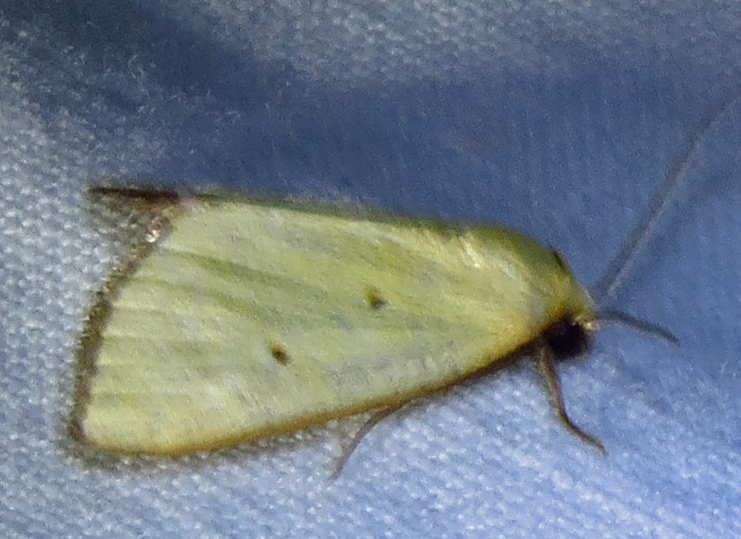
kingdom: Animalia
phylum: Arthropoda
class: Insecta
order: Lepidoptera
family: Noctuidae
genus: Marimatha
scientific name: Marimatha nigrofimbria
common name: Black-bordered lemon moth
